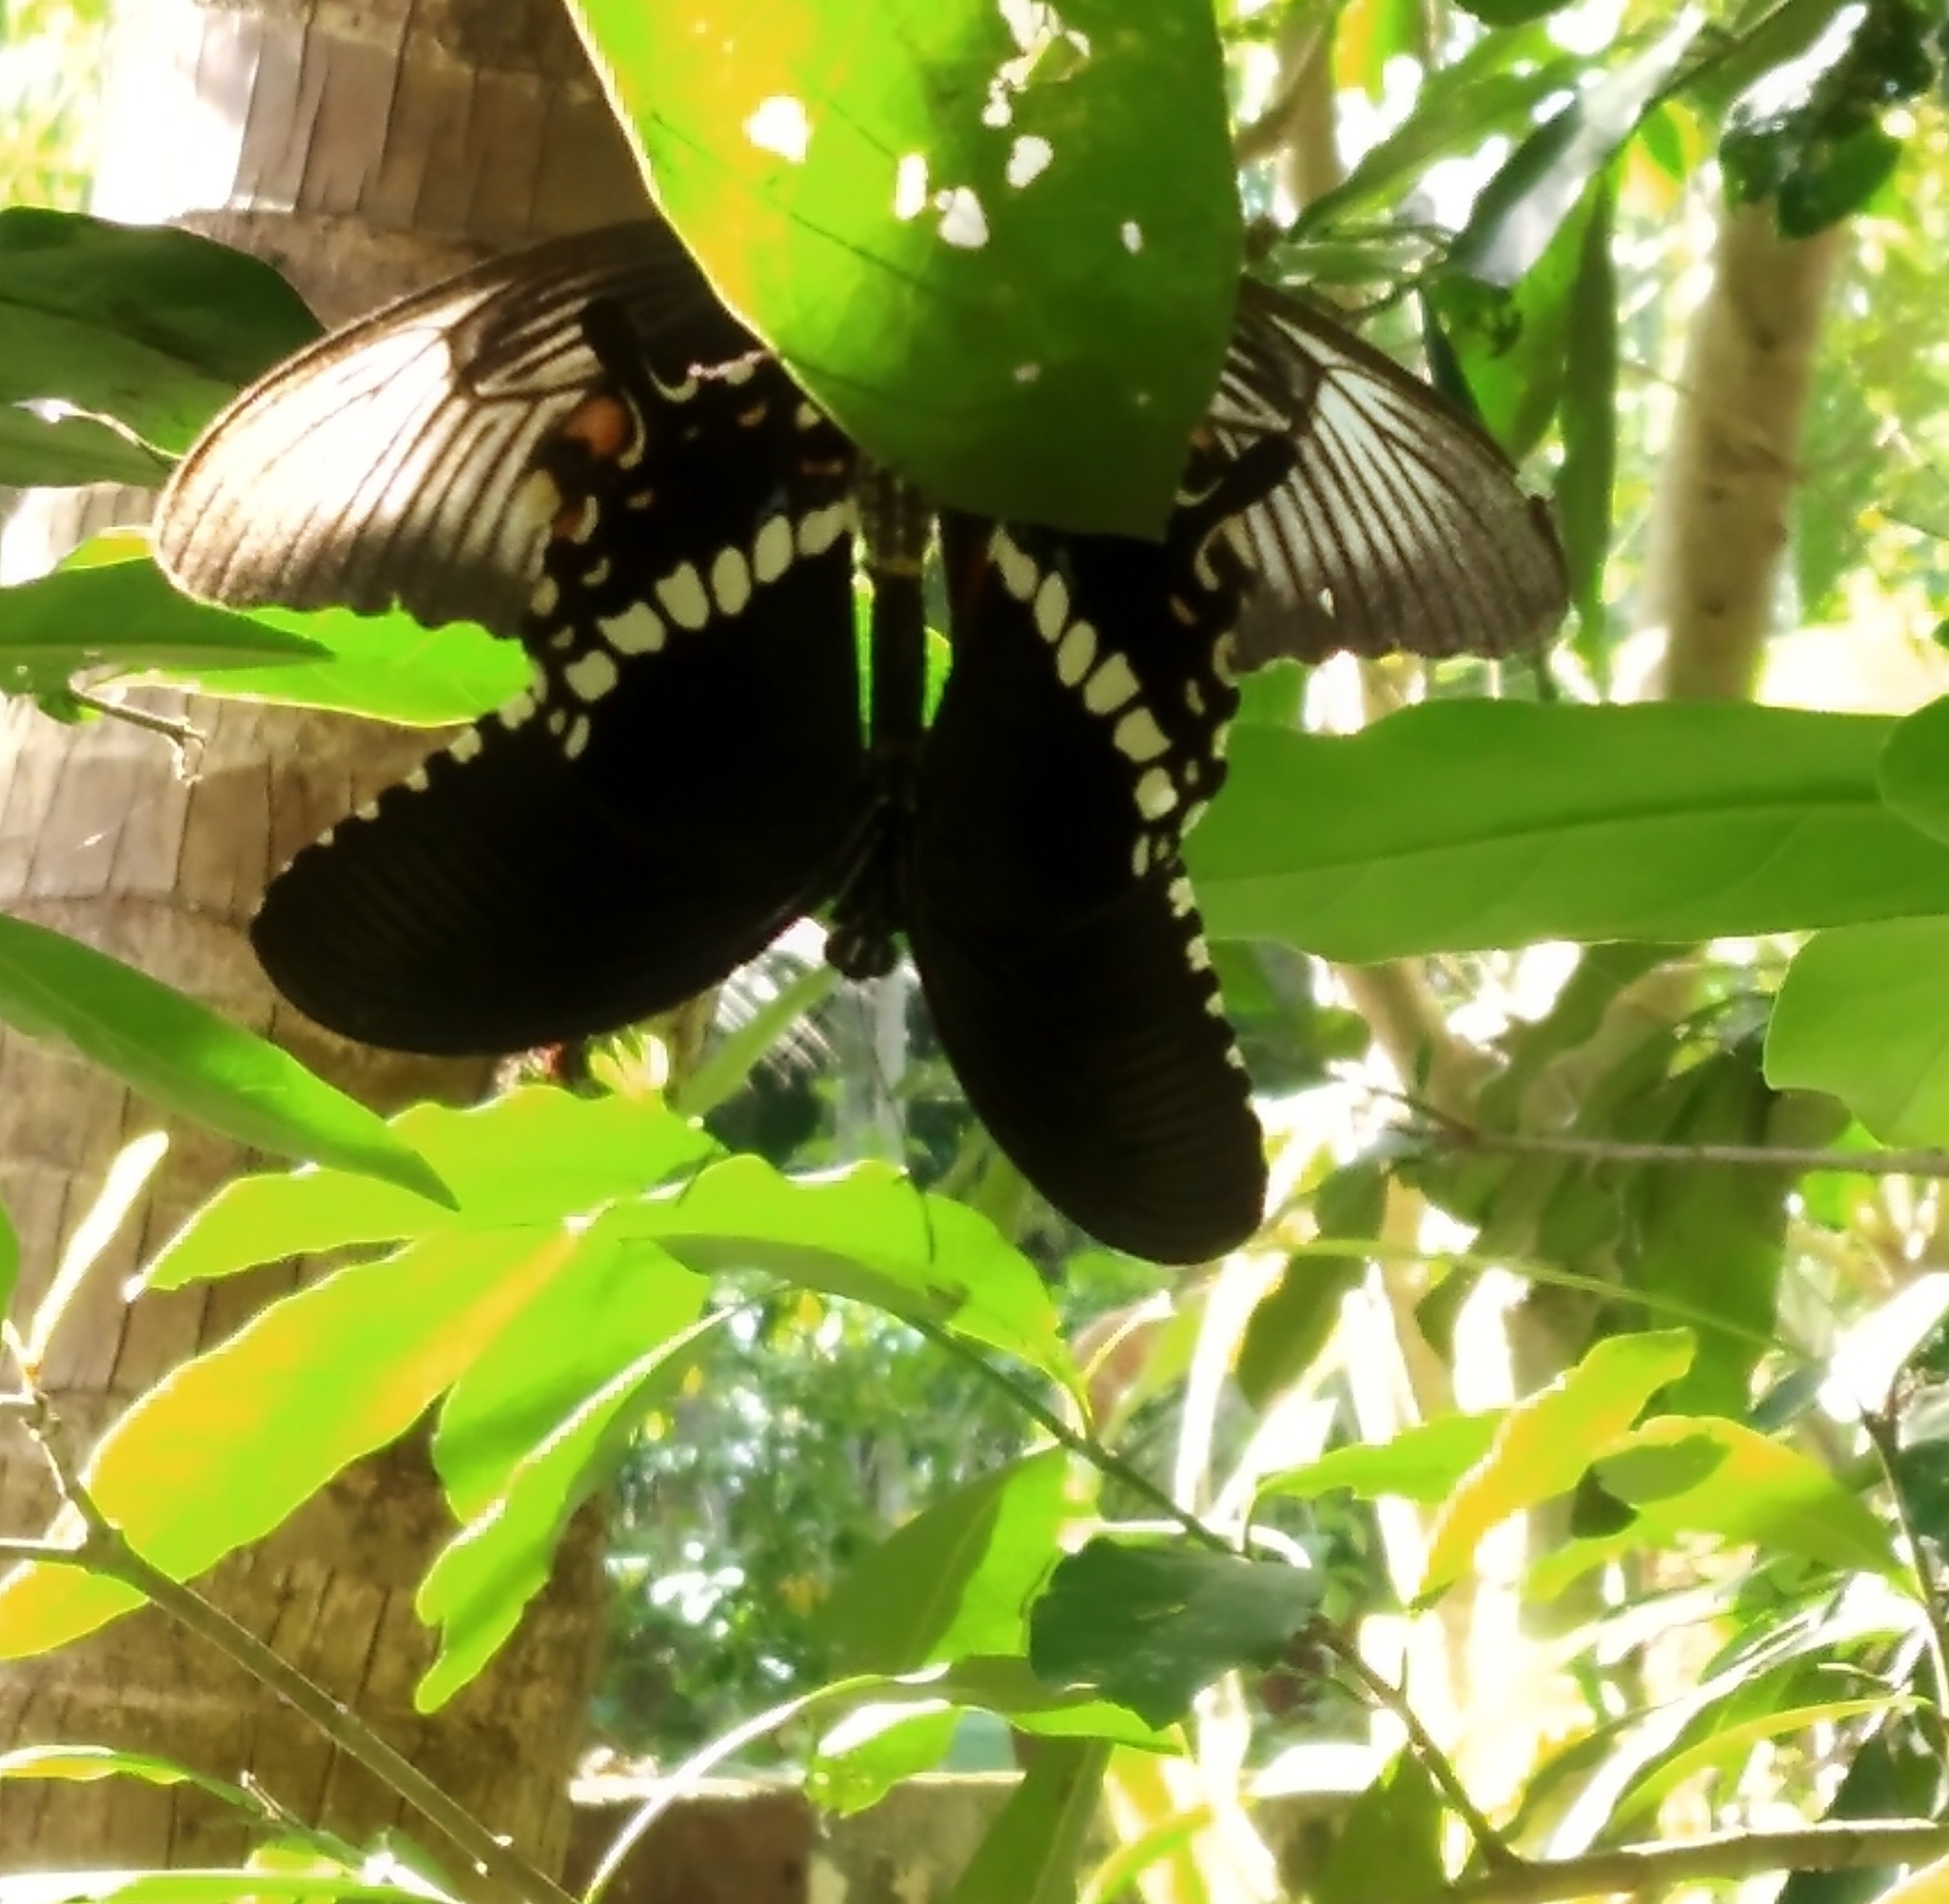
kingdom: Animalia
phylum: Arthropoda
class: Insecta
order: Lepidoptera
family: Papilionidae
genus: Papilio
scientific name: Papilio polytes
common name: Common mormon
